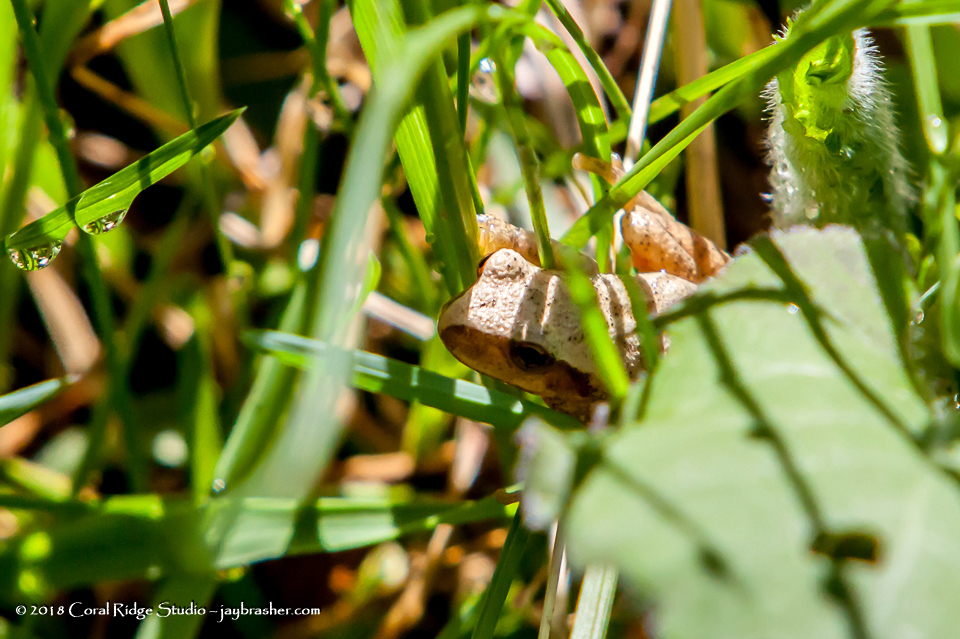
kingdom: Animalia
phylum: Chordata
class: Amphibia
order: Anura
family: Hylidae
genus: Pseudacris
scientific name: Pseudacris crucifer
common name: Spring peeper
